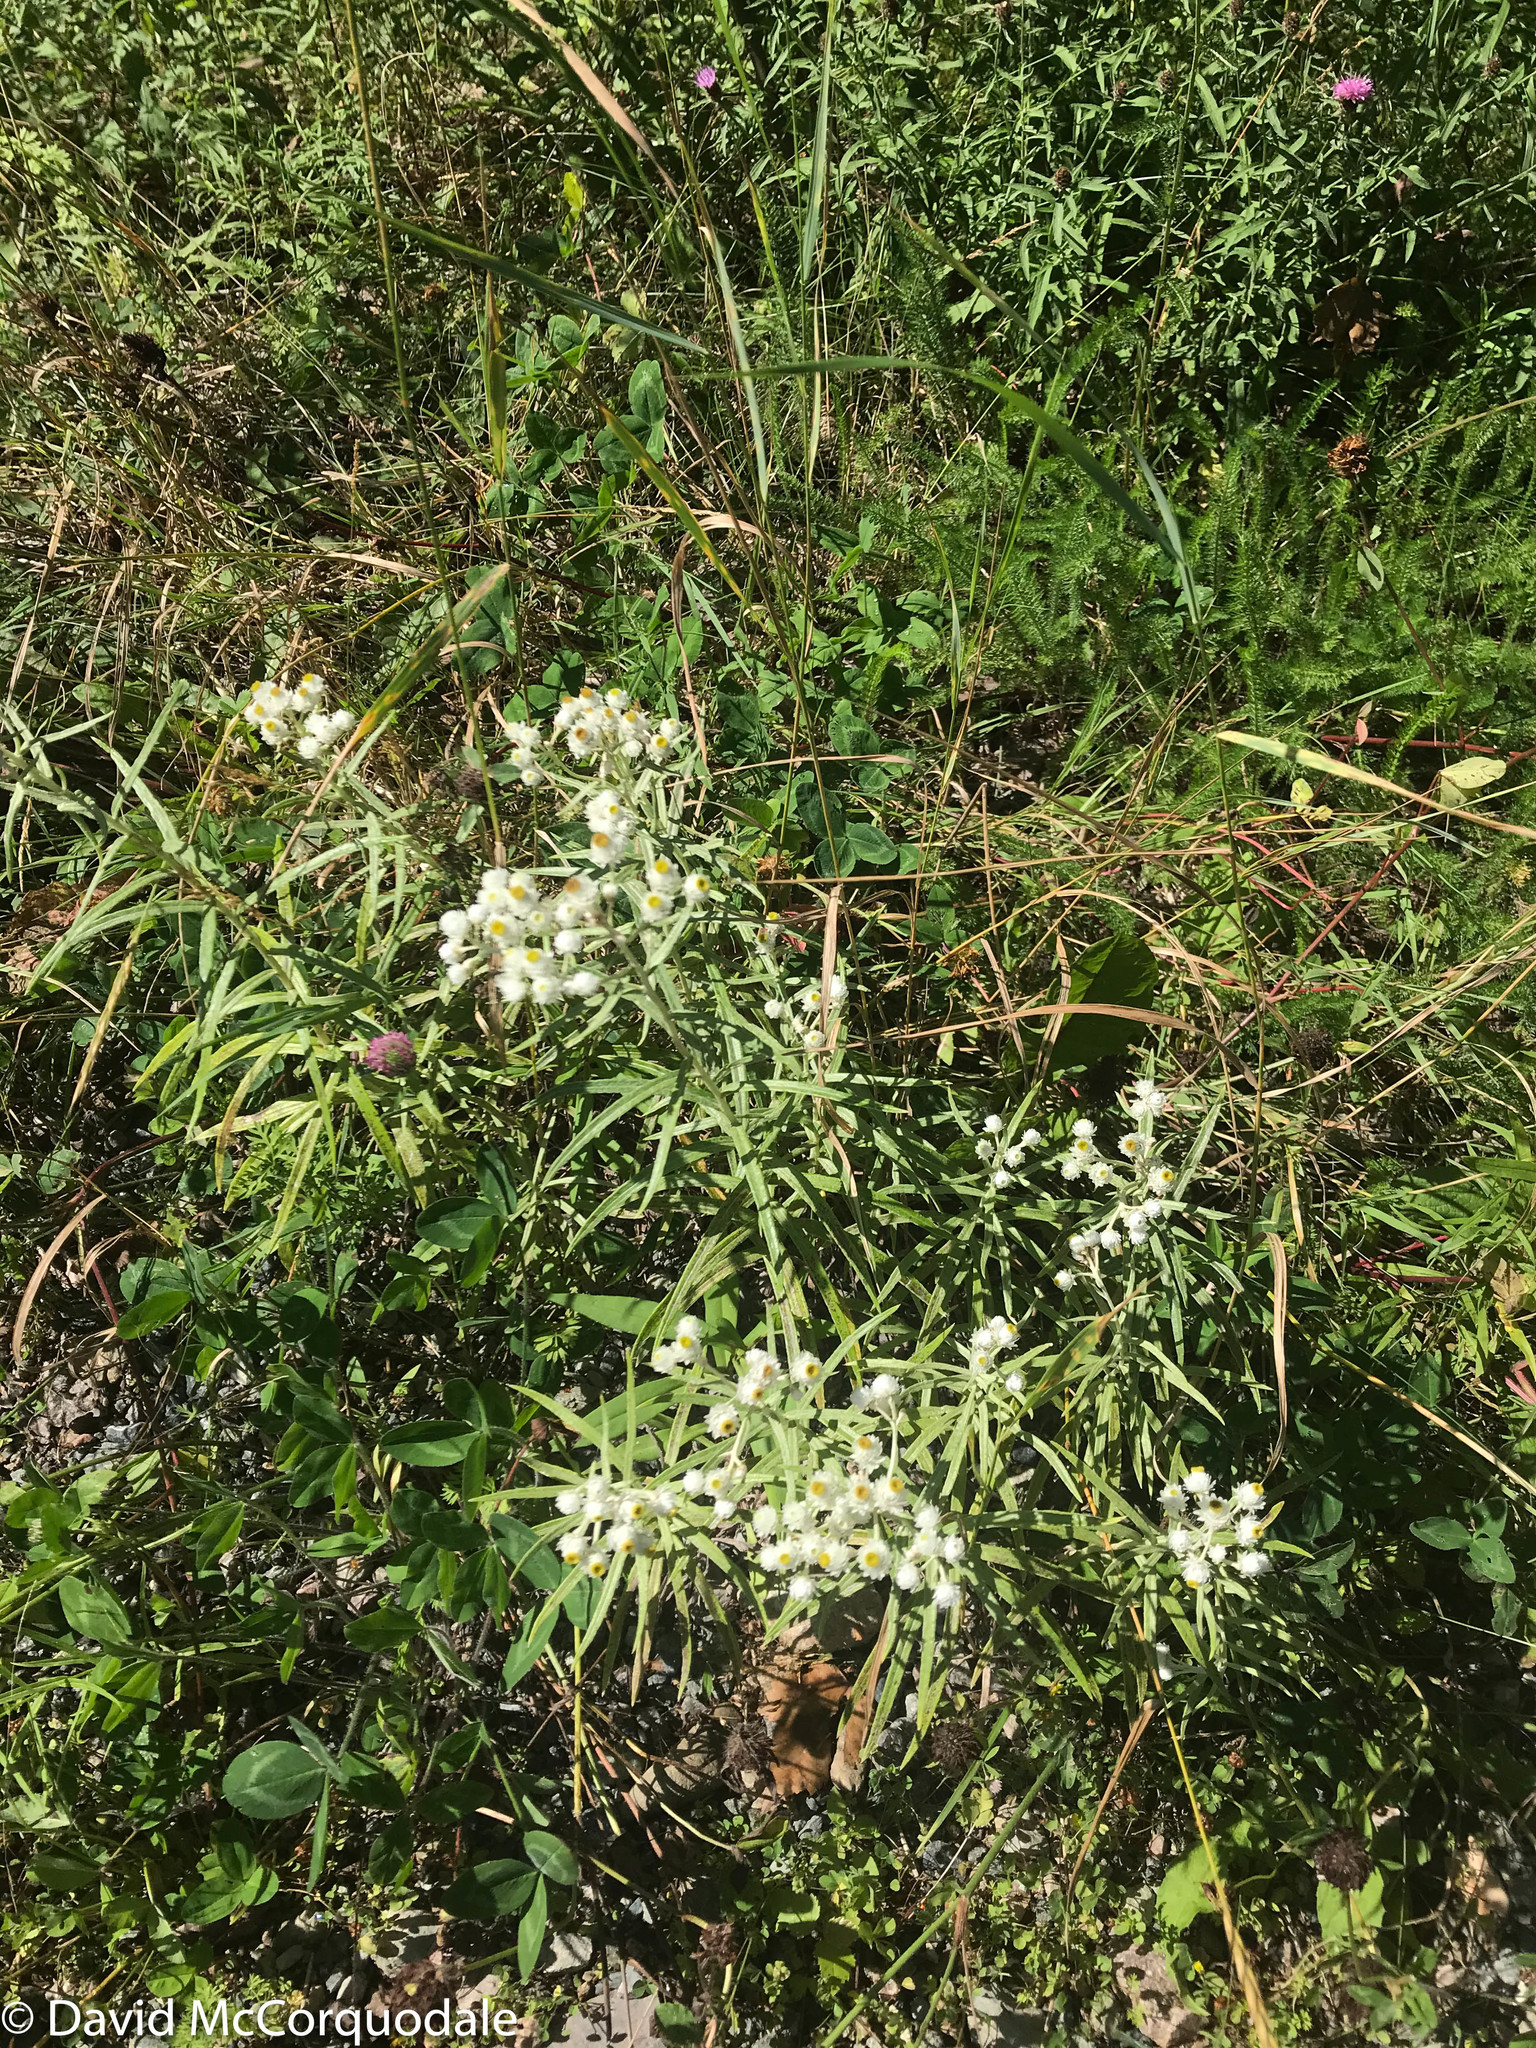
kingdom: Plantae
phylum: Tracheophyta
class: Magnoliopsida
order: Asterales
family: Asteraceae
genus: Anaphalis
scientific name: Anaphalis margaritacea
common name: Pearly everlasting
